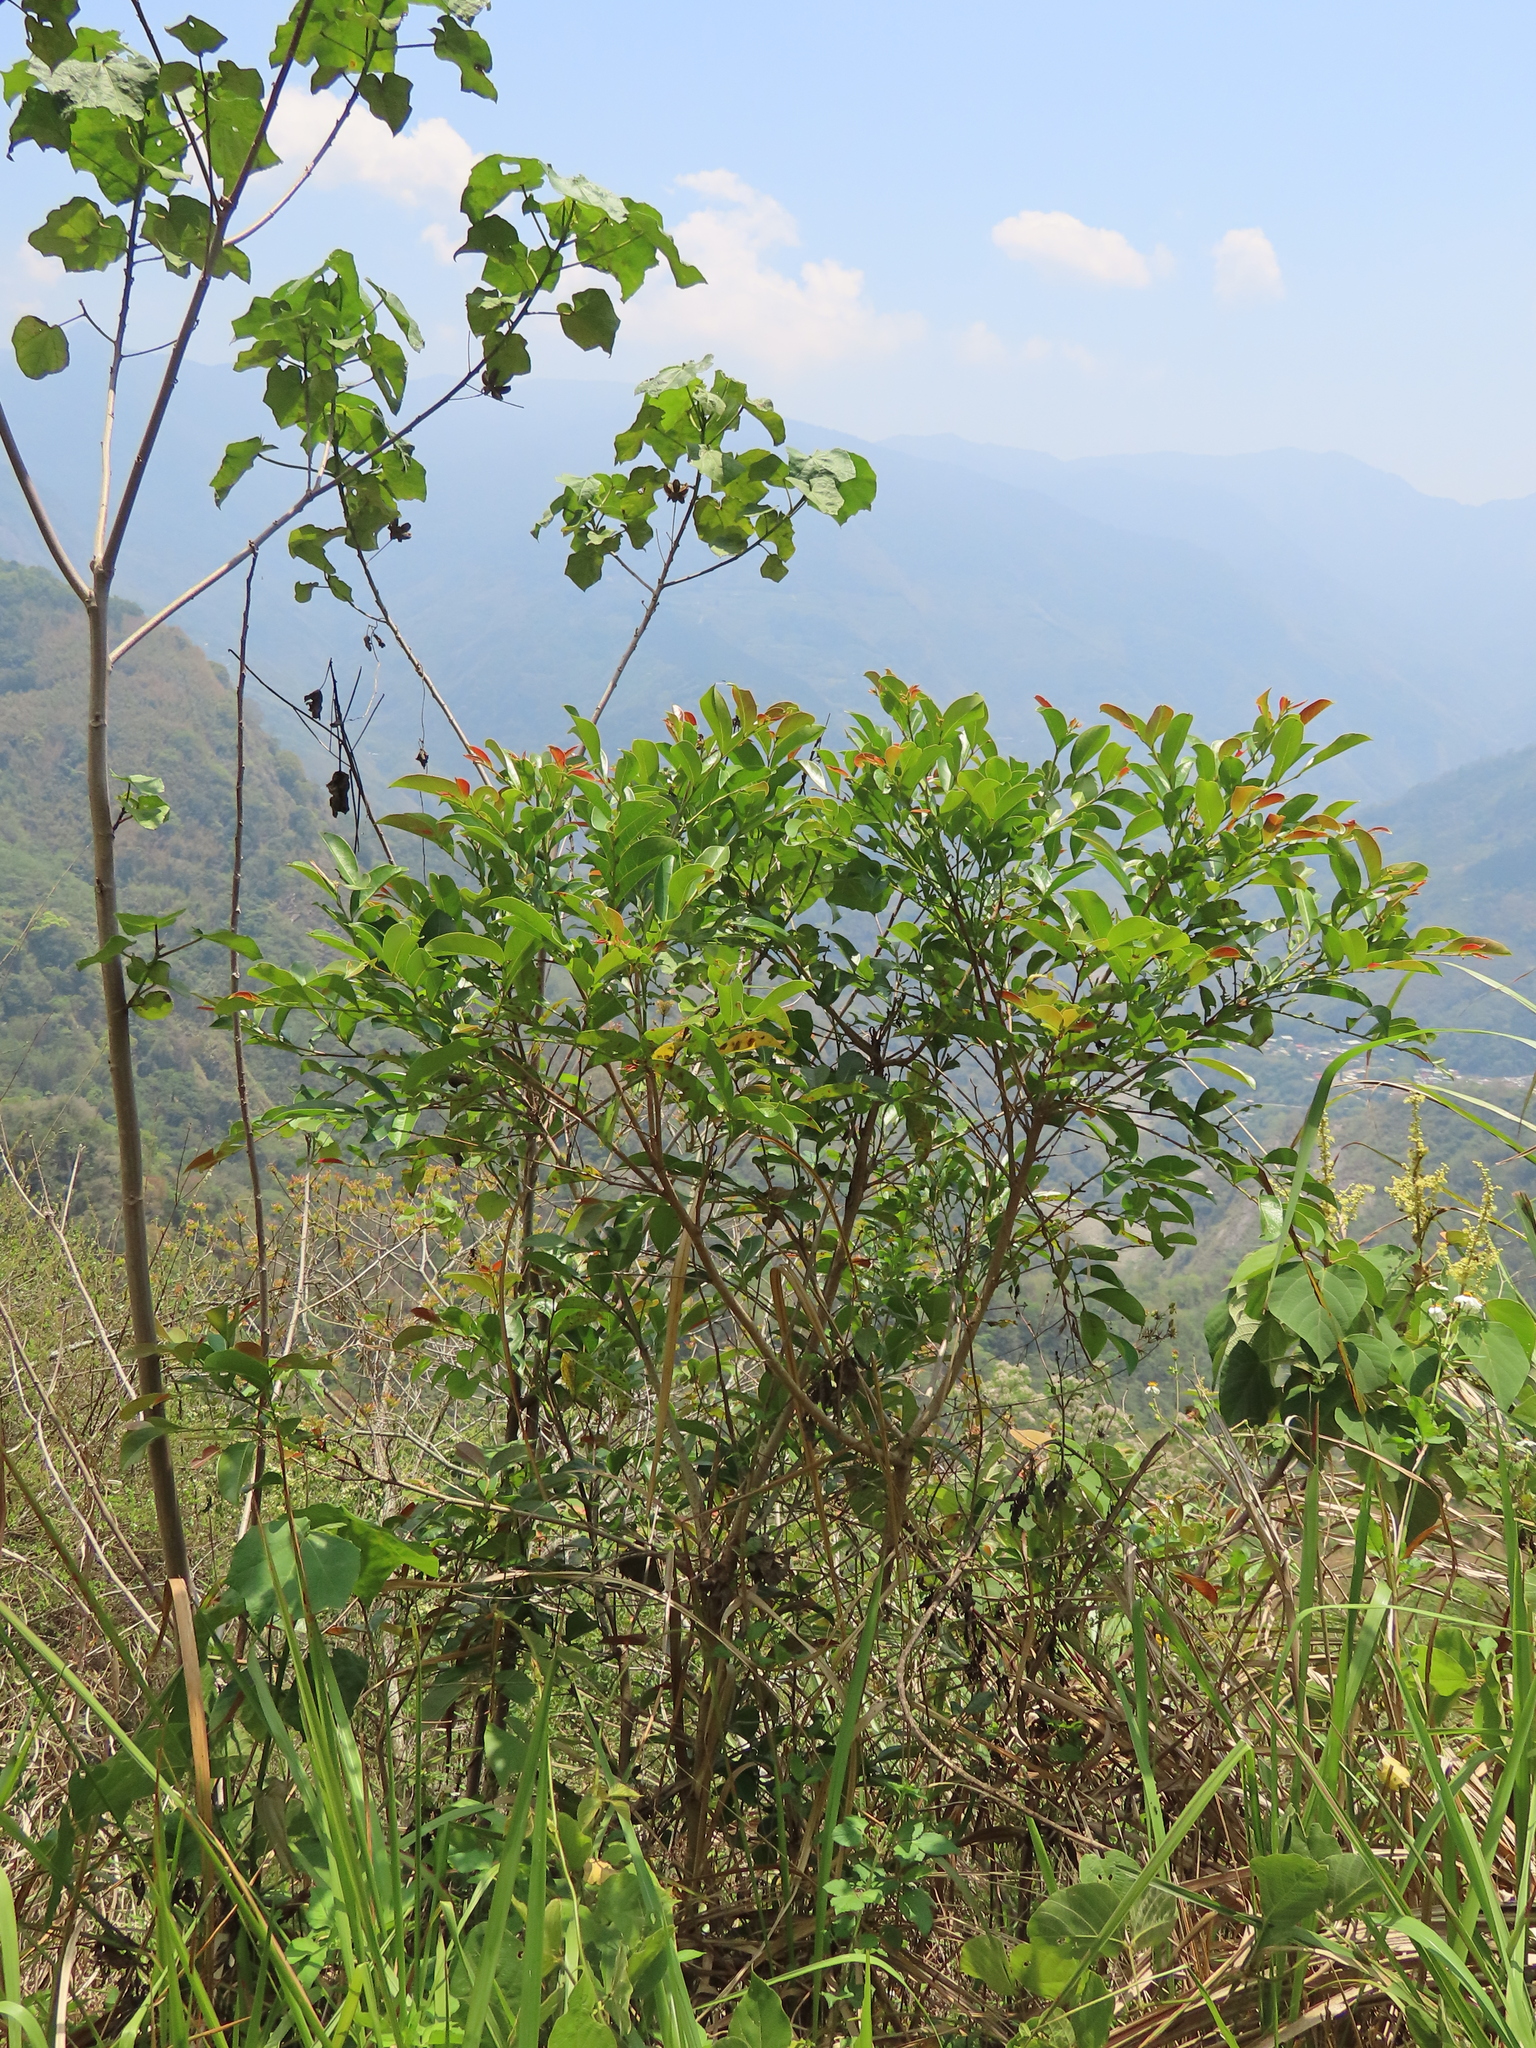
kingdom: Plantae
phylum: Tracheophyta
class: Magnoliopsida
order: Malpighiales
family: Phyllanthaceae
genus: Glochidion
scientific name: Glochidion rubrum
